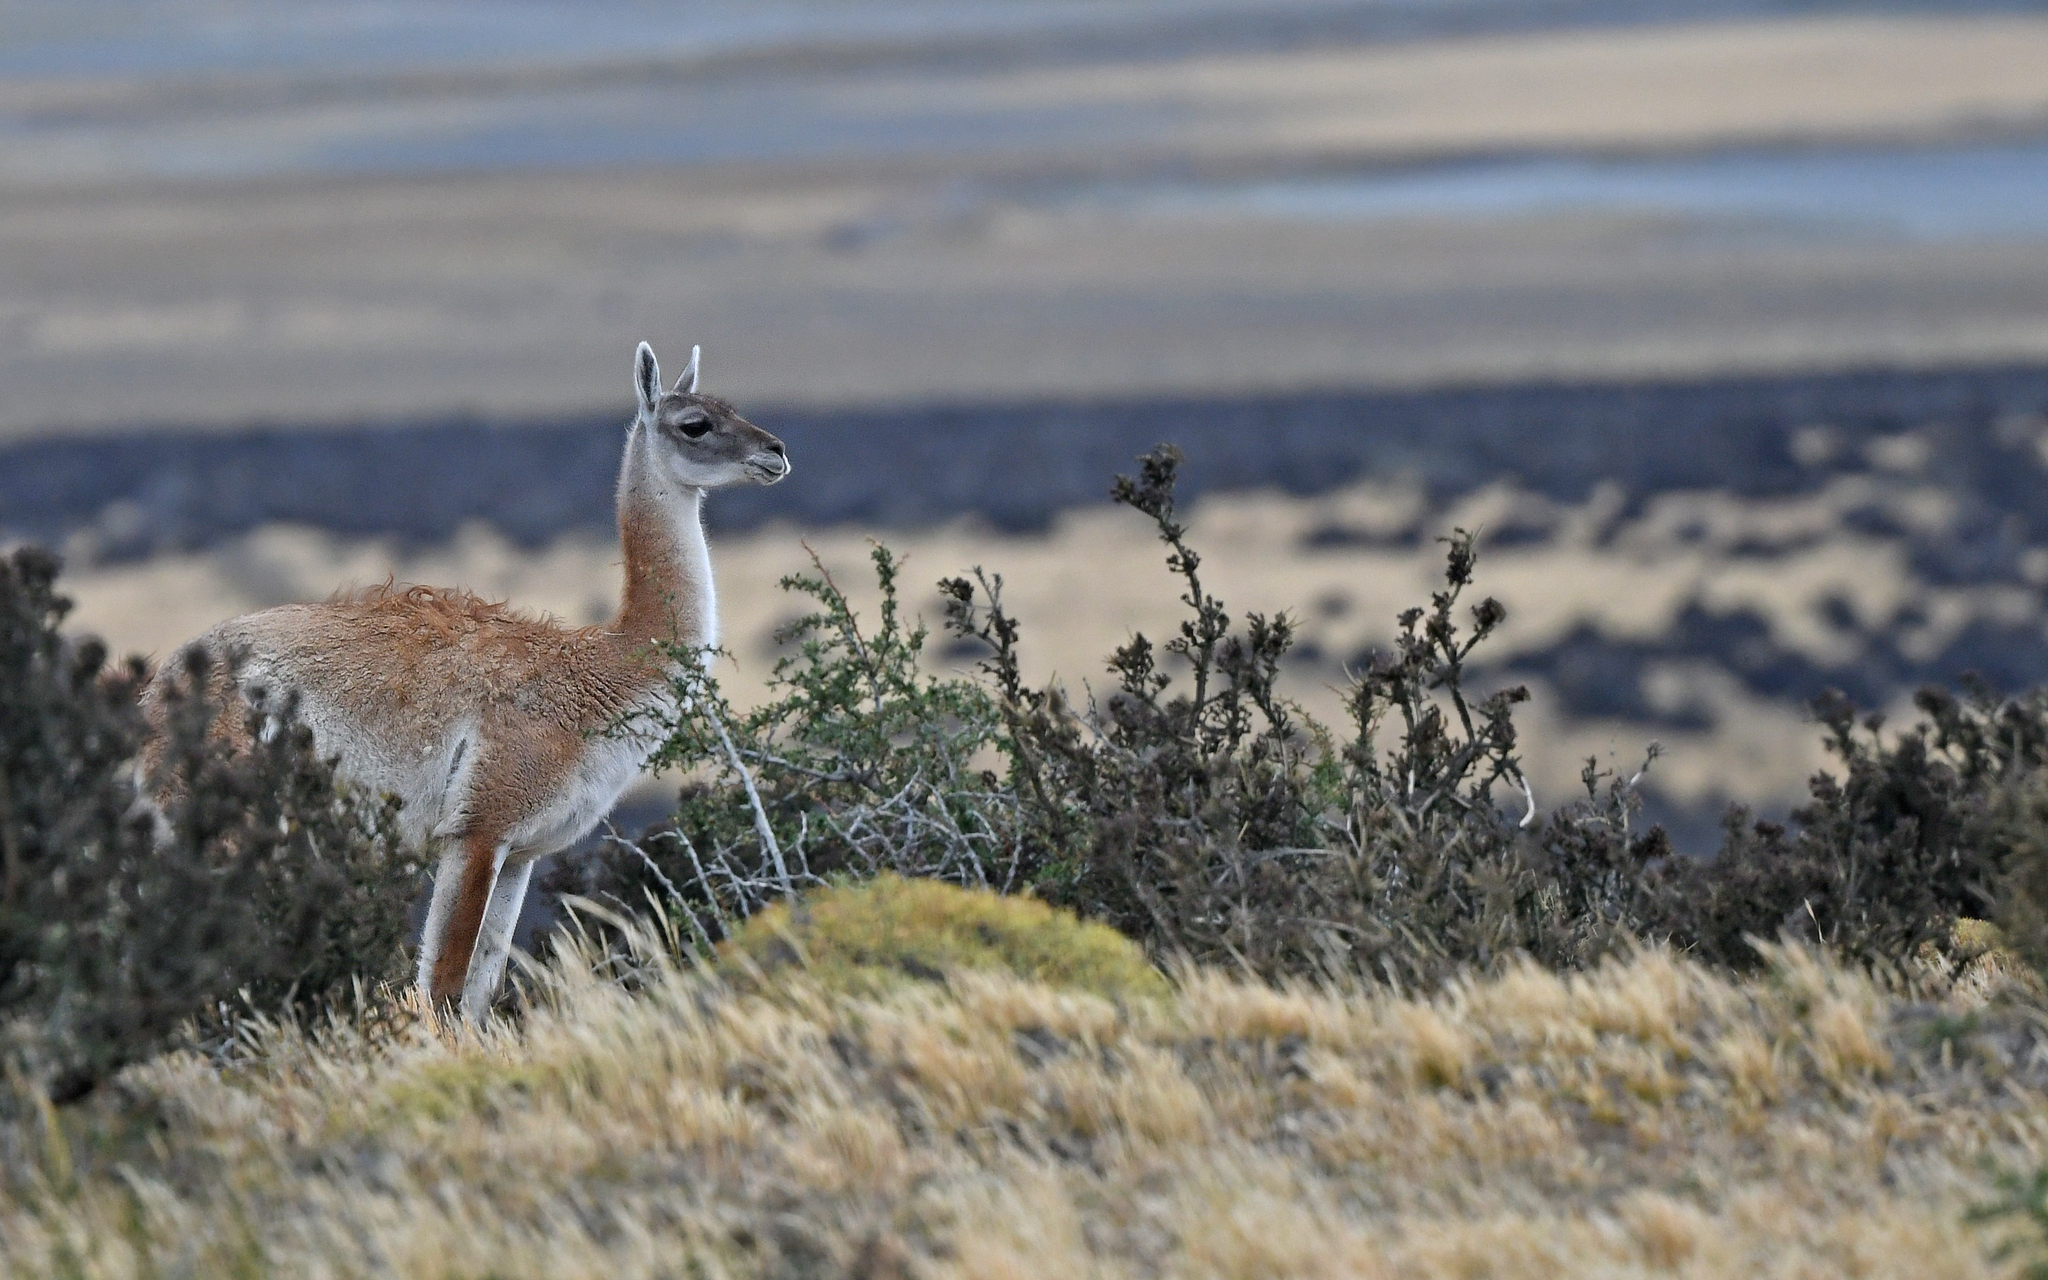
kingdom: Animalia
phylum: Chordata
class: Mammalia
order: Artiodactyla
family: Camelidae
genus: Lama
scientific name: Lama glama
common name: Llama
